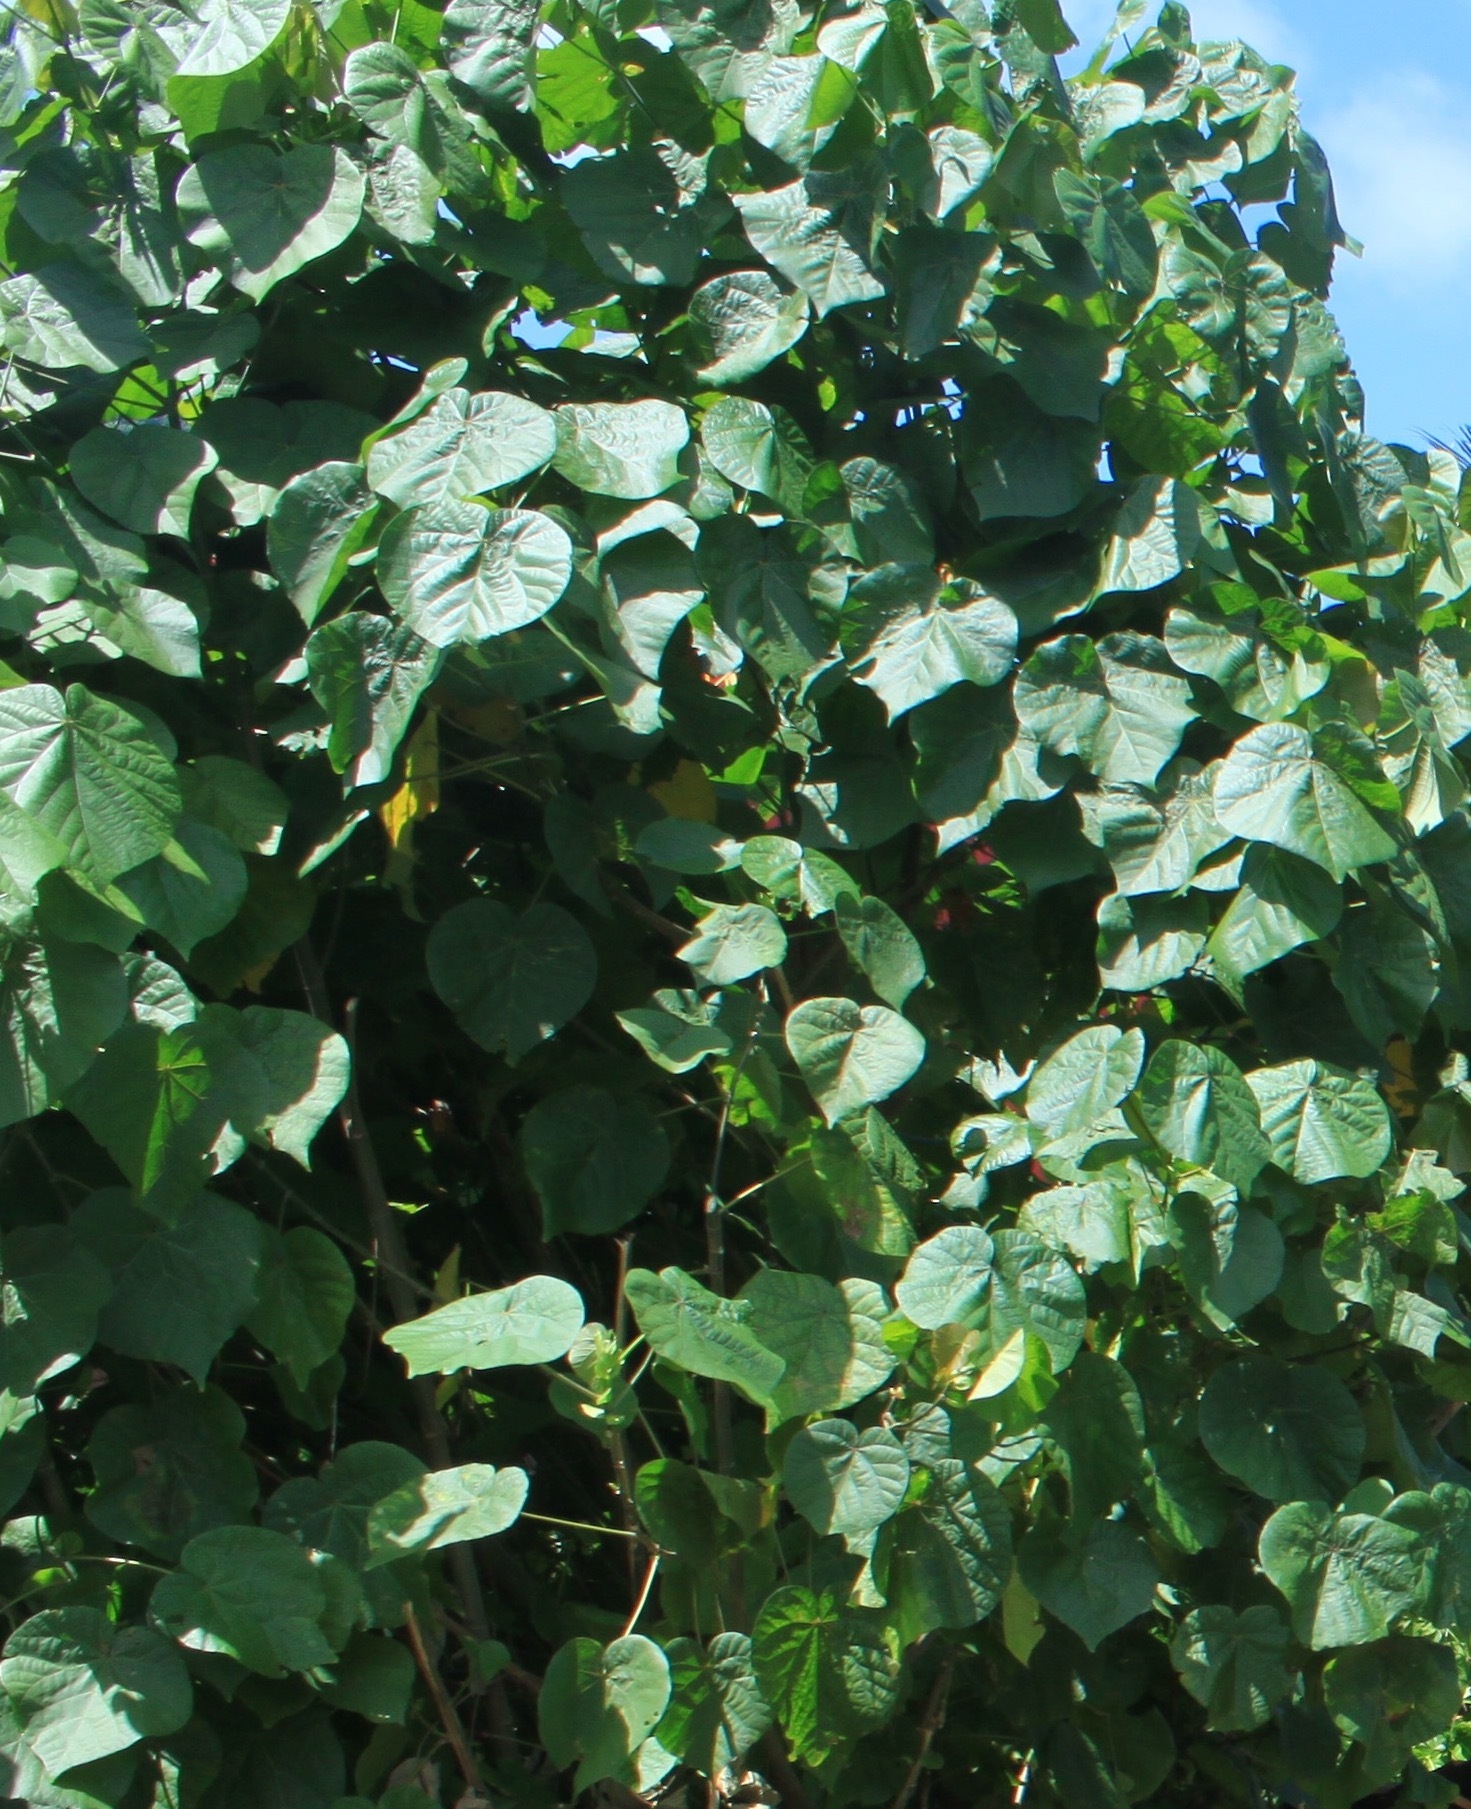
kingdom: Plantae
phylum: Tracheophyta
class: Magnoliopsida
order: Malvales
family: Malvaceae
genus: Talipariti
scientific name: Talipariti tiliaceum
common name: Sea hibiscus
